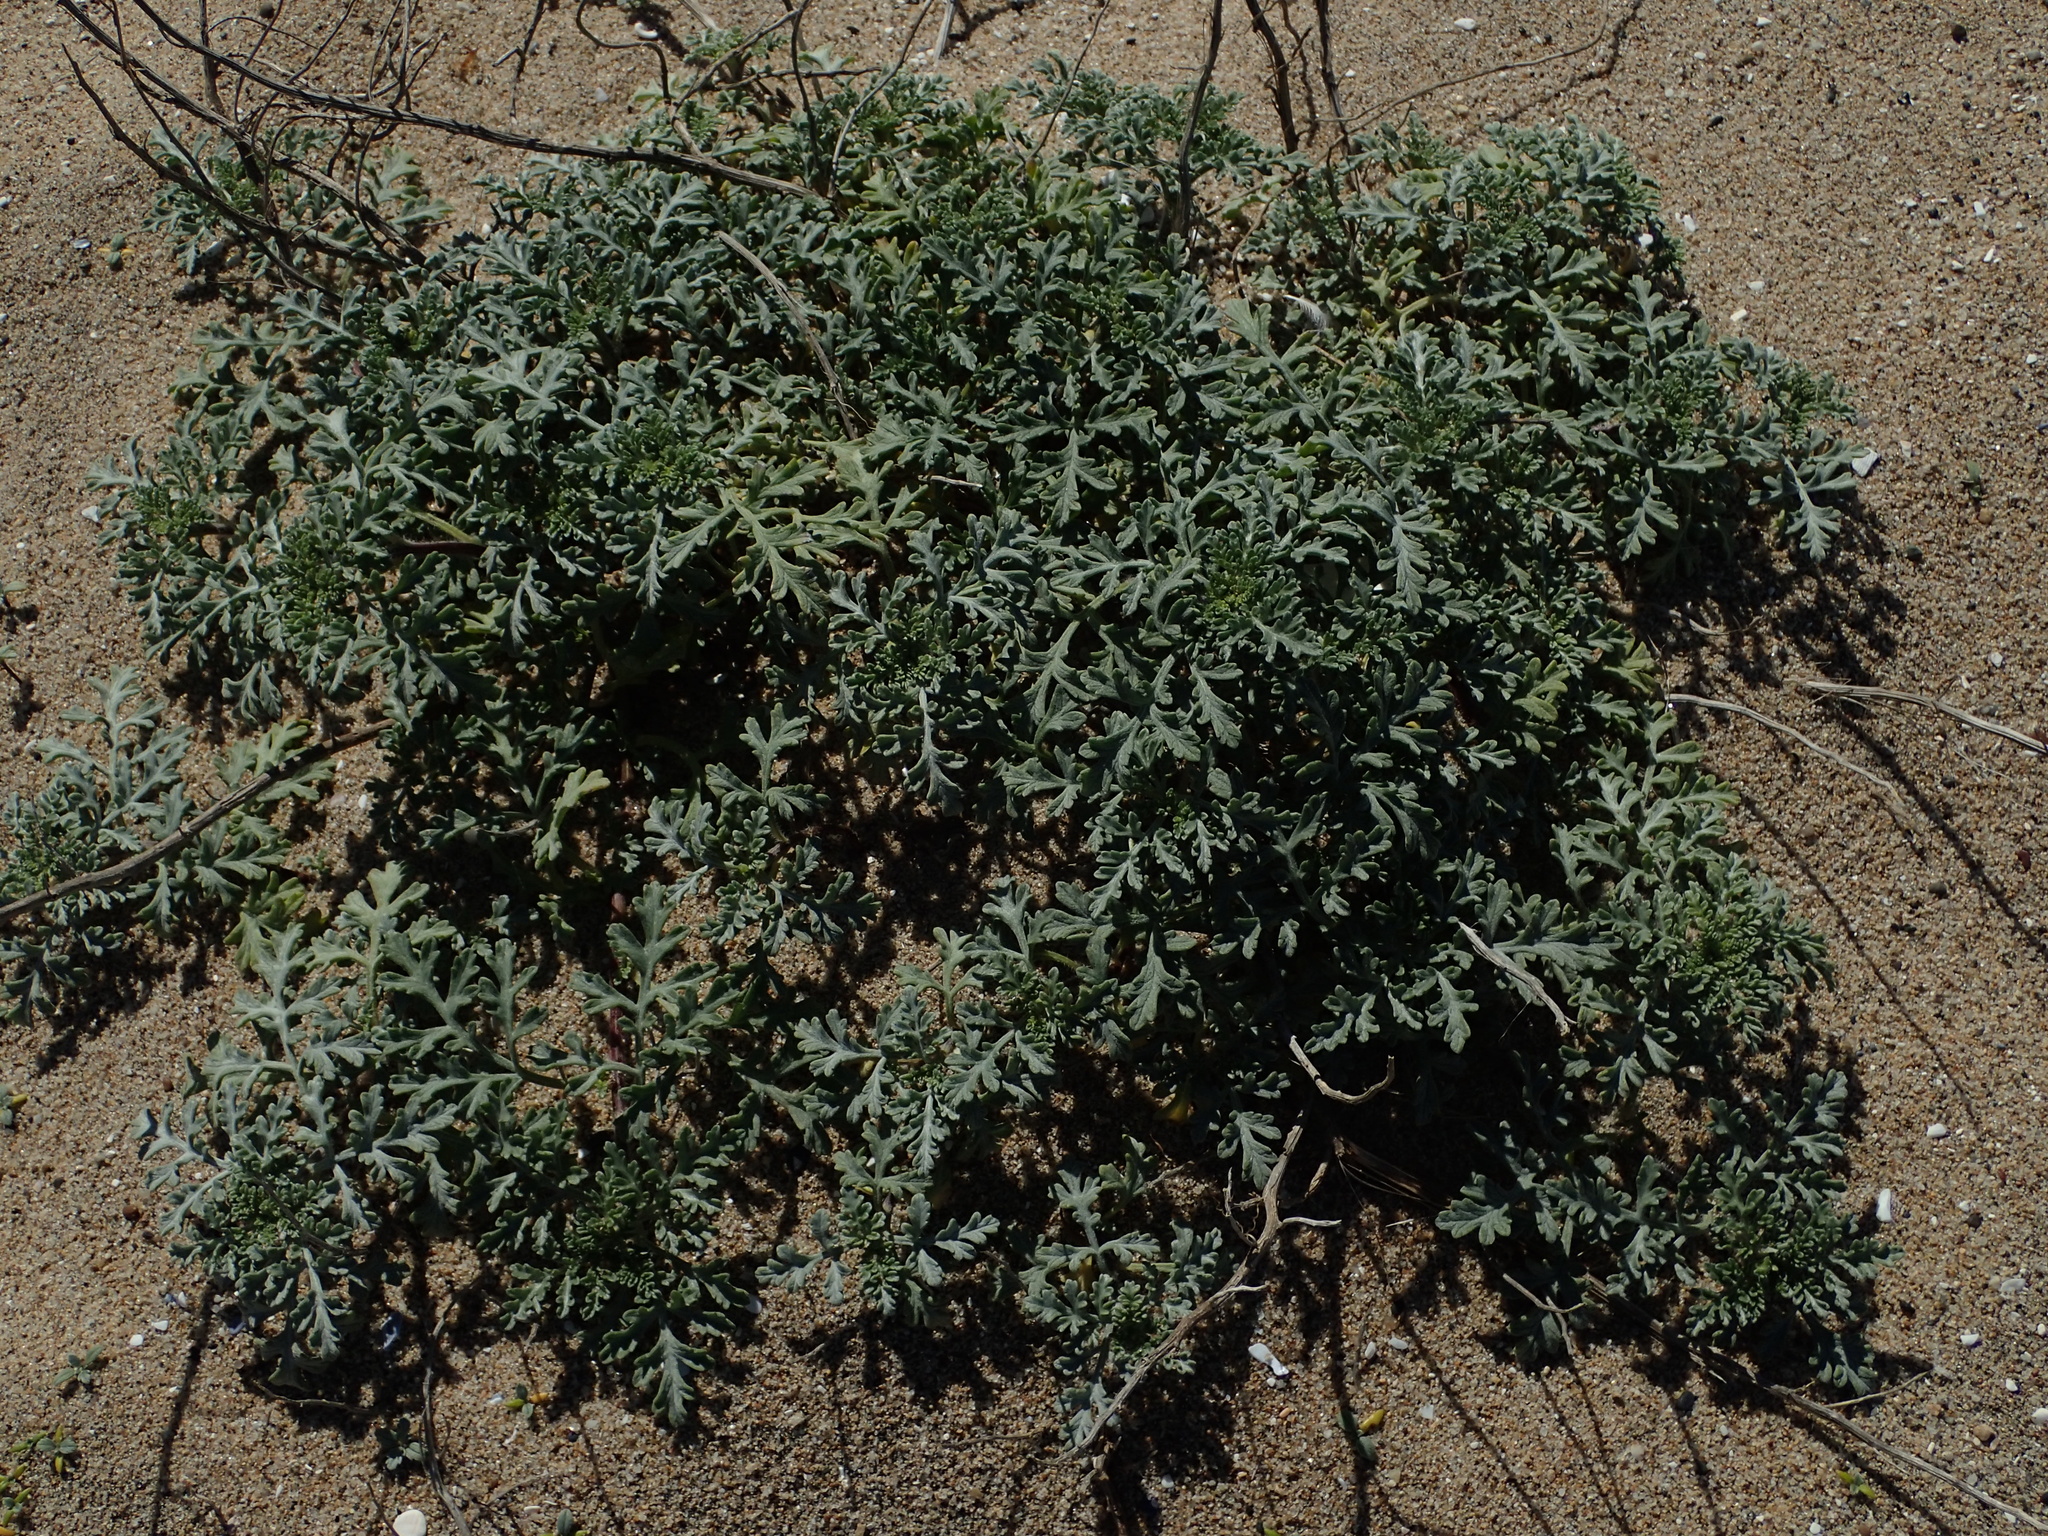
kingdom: Plantae
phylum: Tracheophyta
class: Magnoliopsida
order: Asterales
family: Asteraceae
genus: Ambrosia
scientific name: Ambrosia chamissonis
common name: Beachbur
